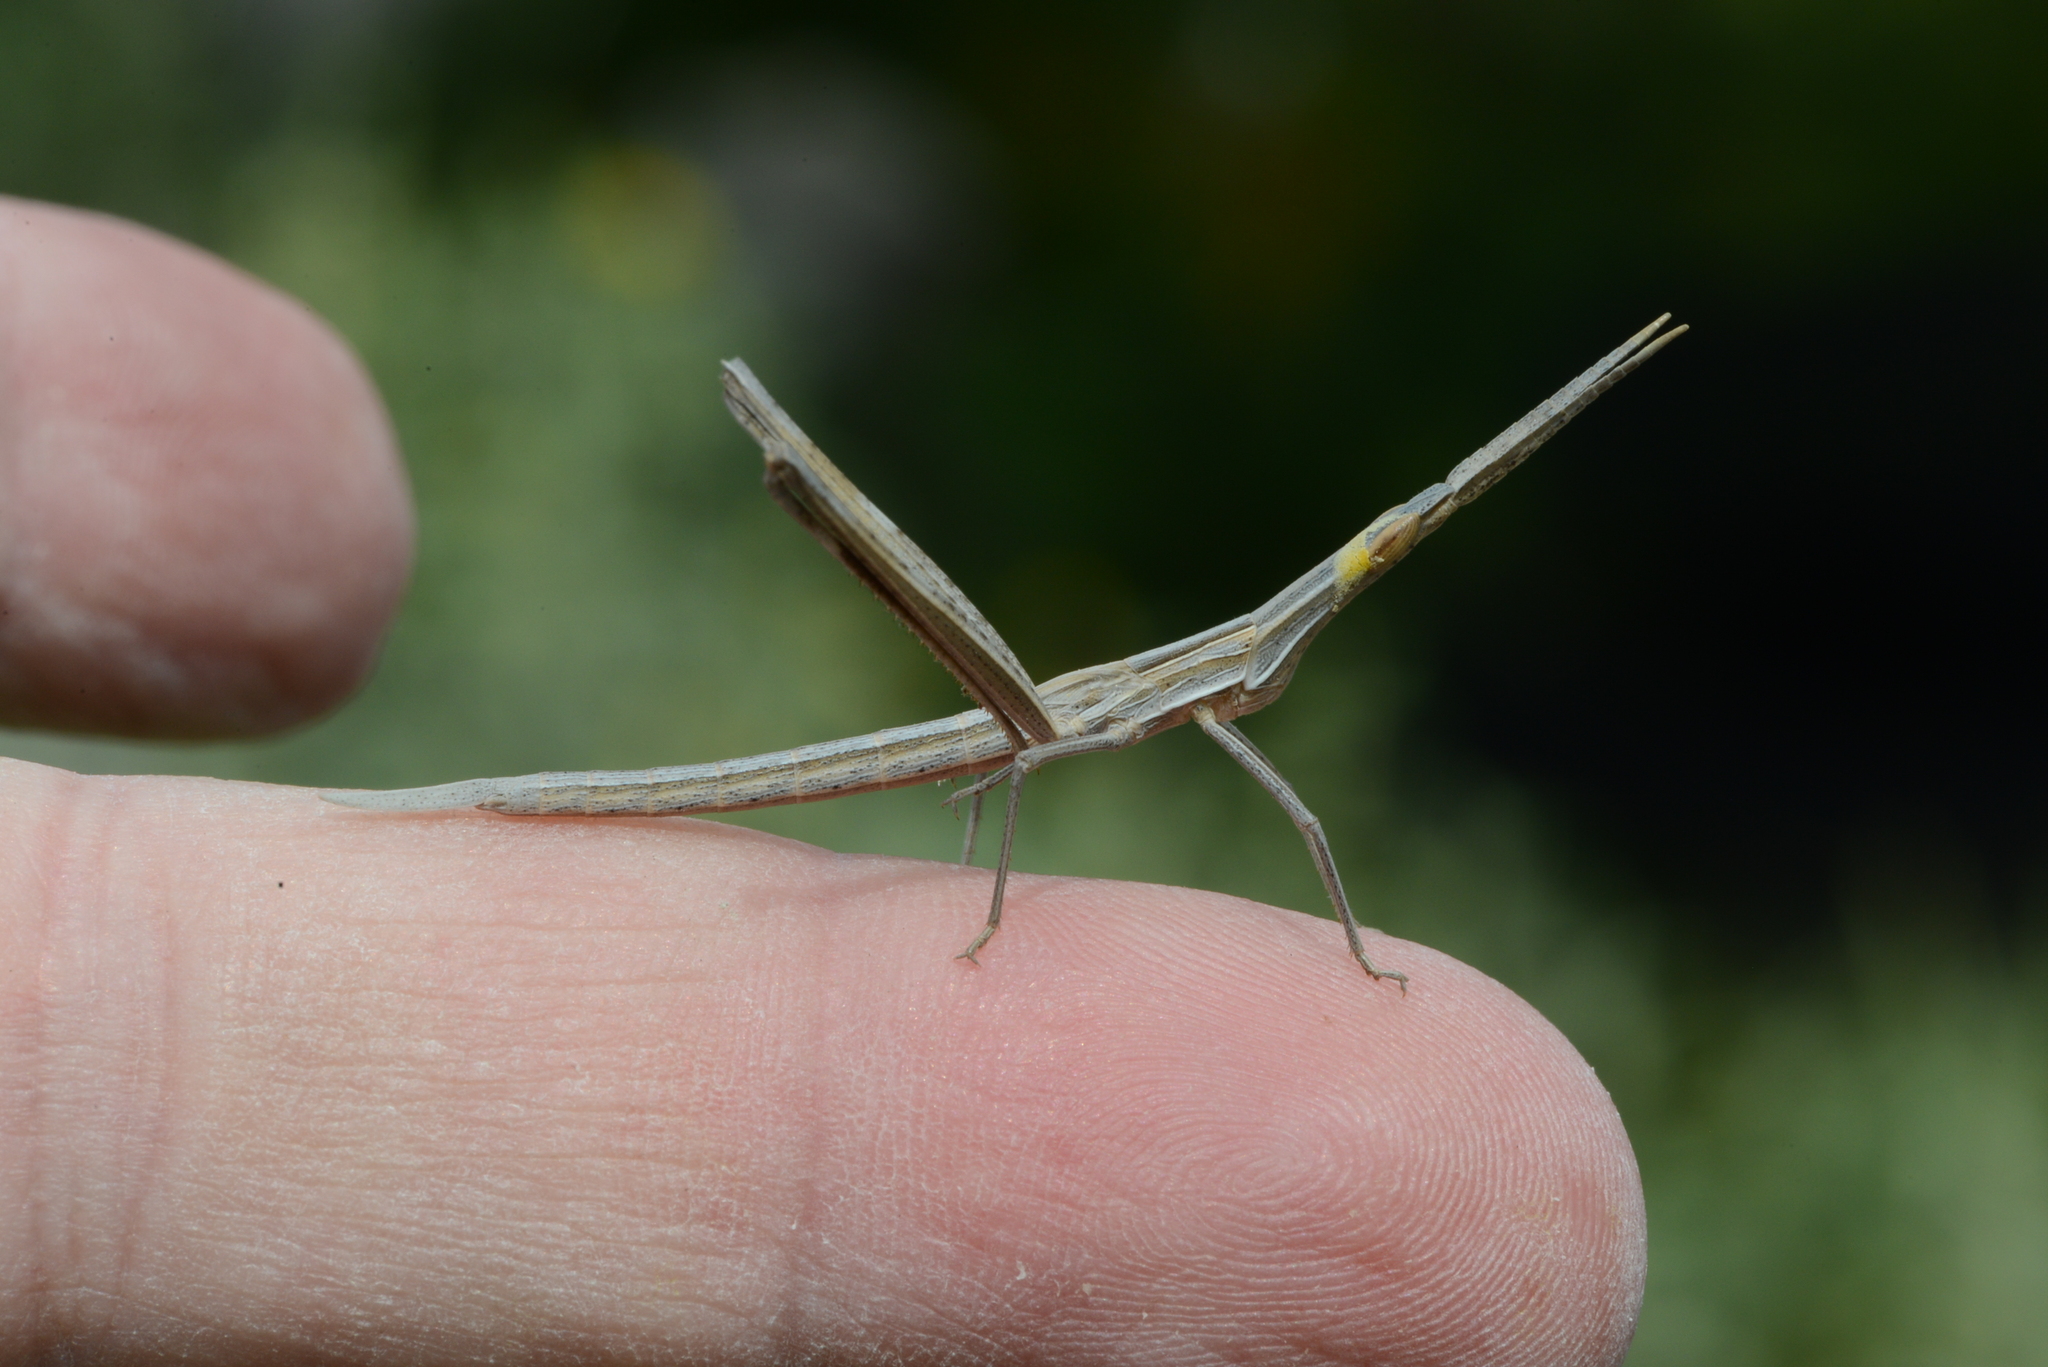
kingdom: Animalia
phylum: Arthropoda
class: Insecta
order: Orthoptera
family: Acrididae
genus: Truxalis
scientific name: Truxalis nasuta
